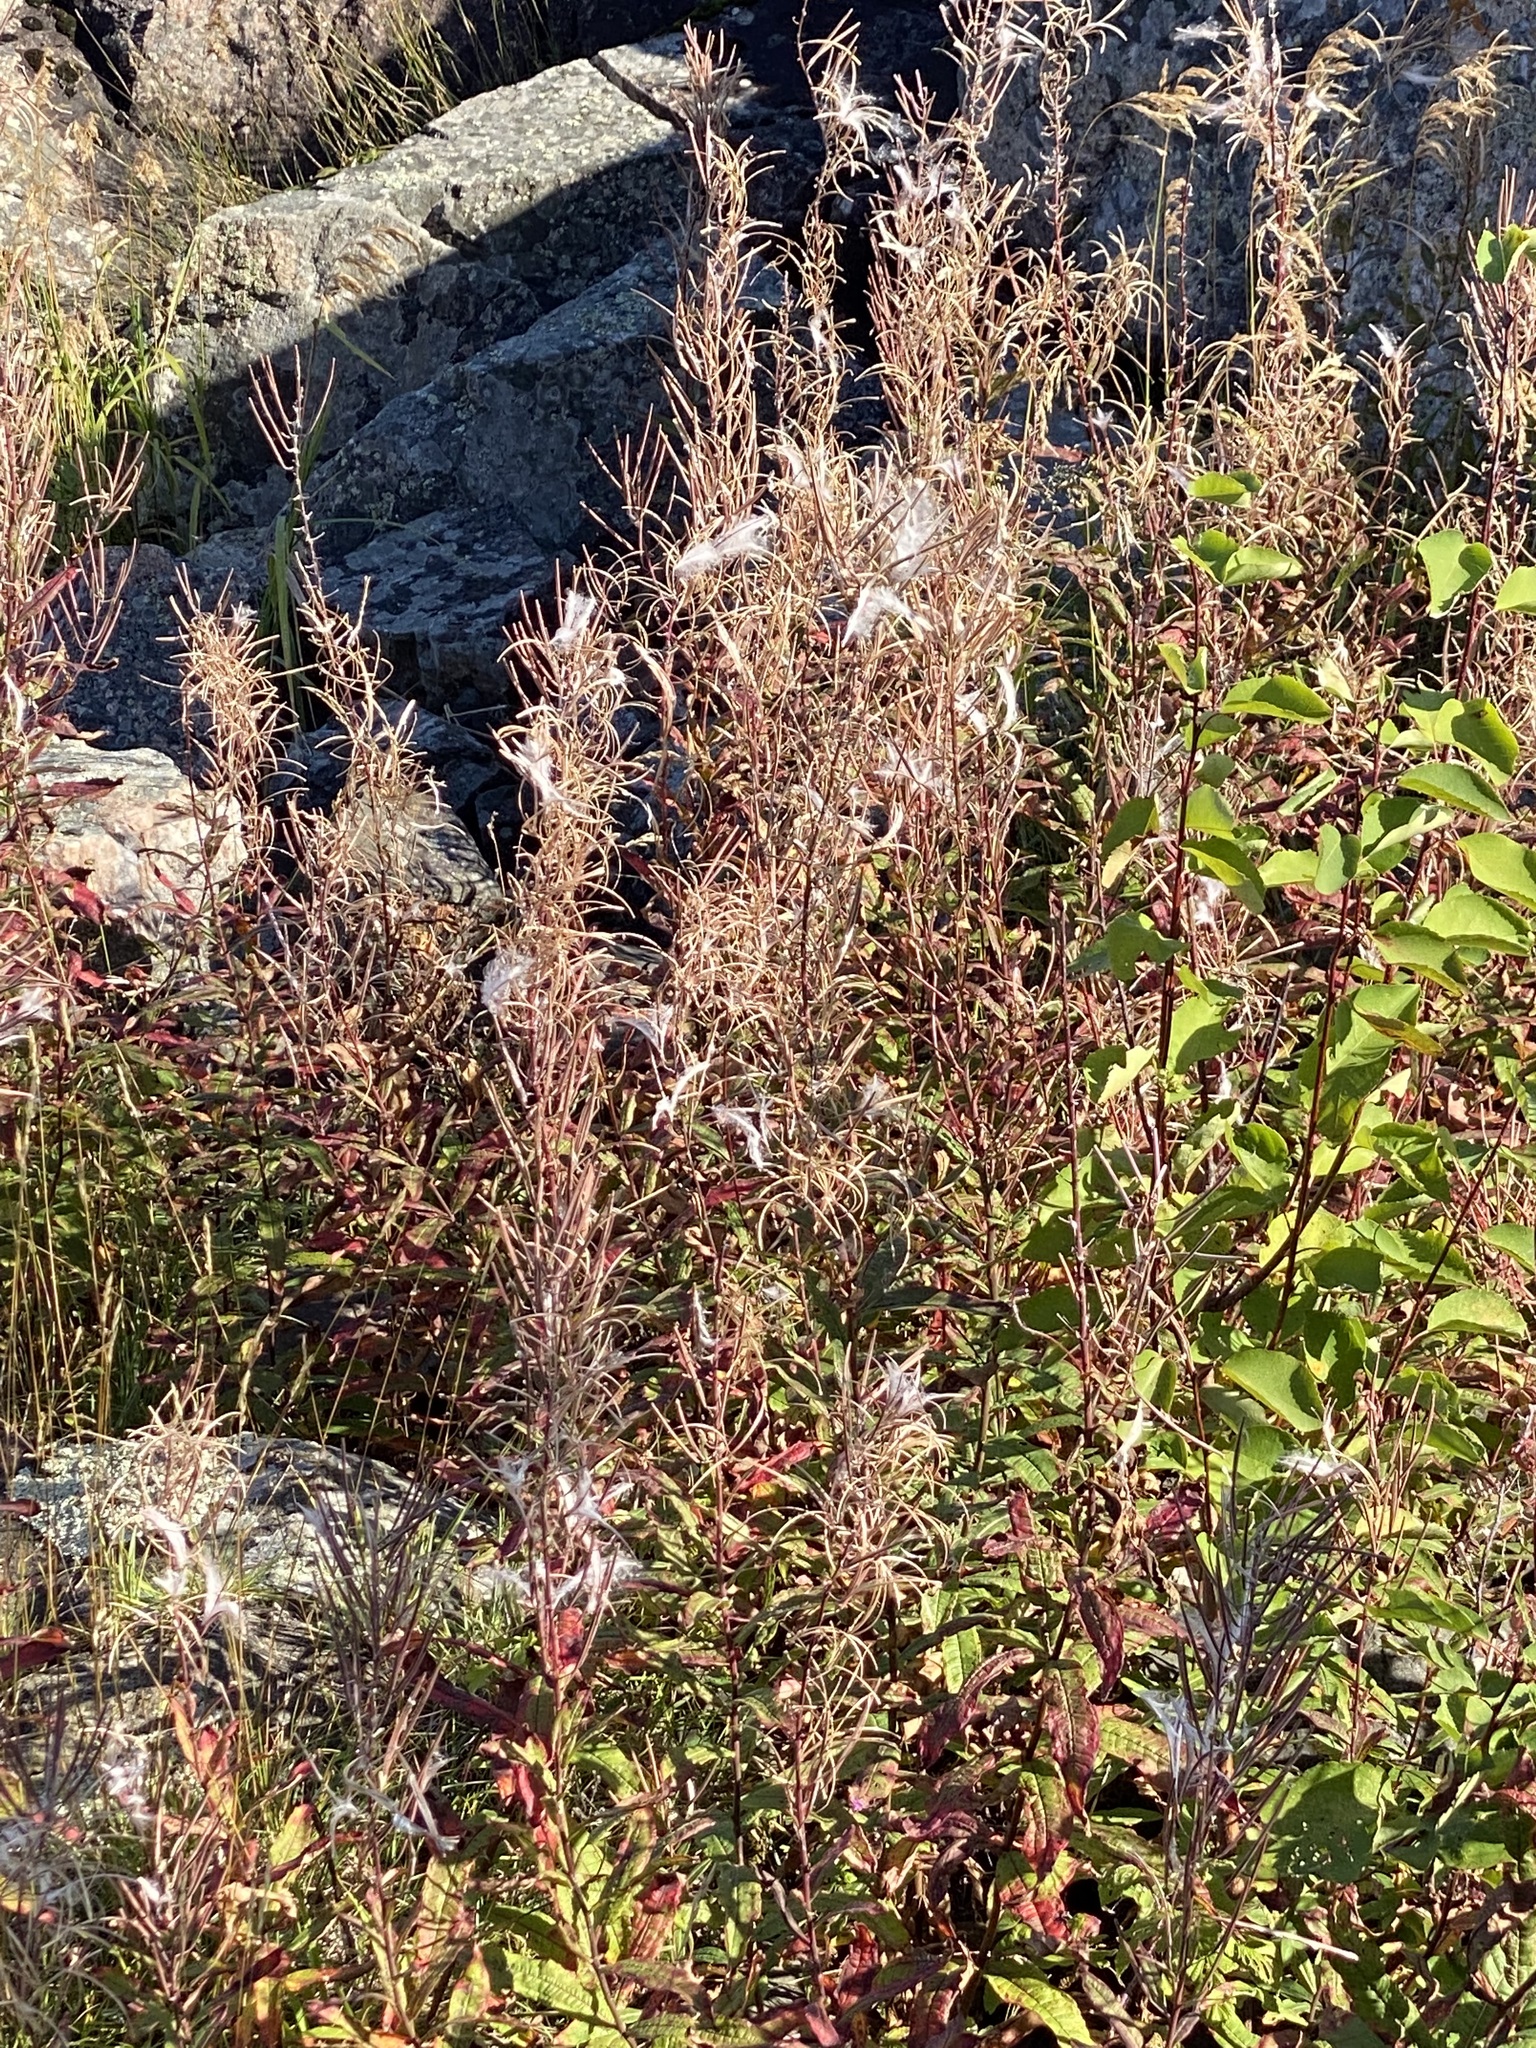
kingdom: Plantae
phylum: Tracheophyta
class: Magnoliopsida
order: Myrtales
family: Onagraceae
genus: Chamaenerion
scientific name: Chamaenerion angustifolium
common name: Fireweed
